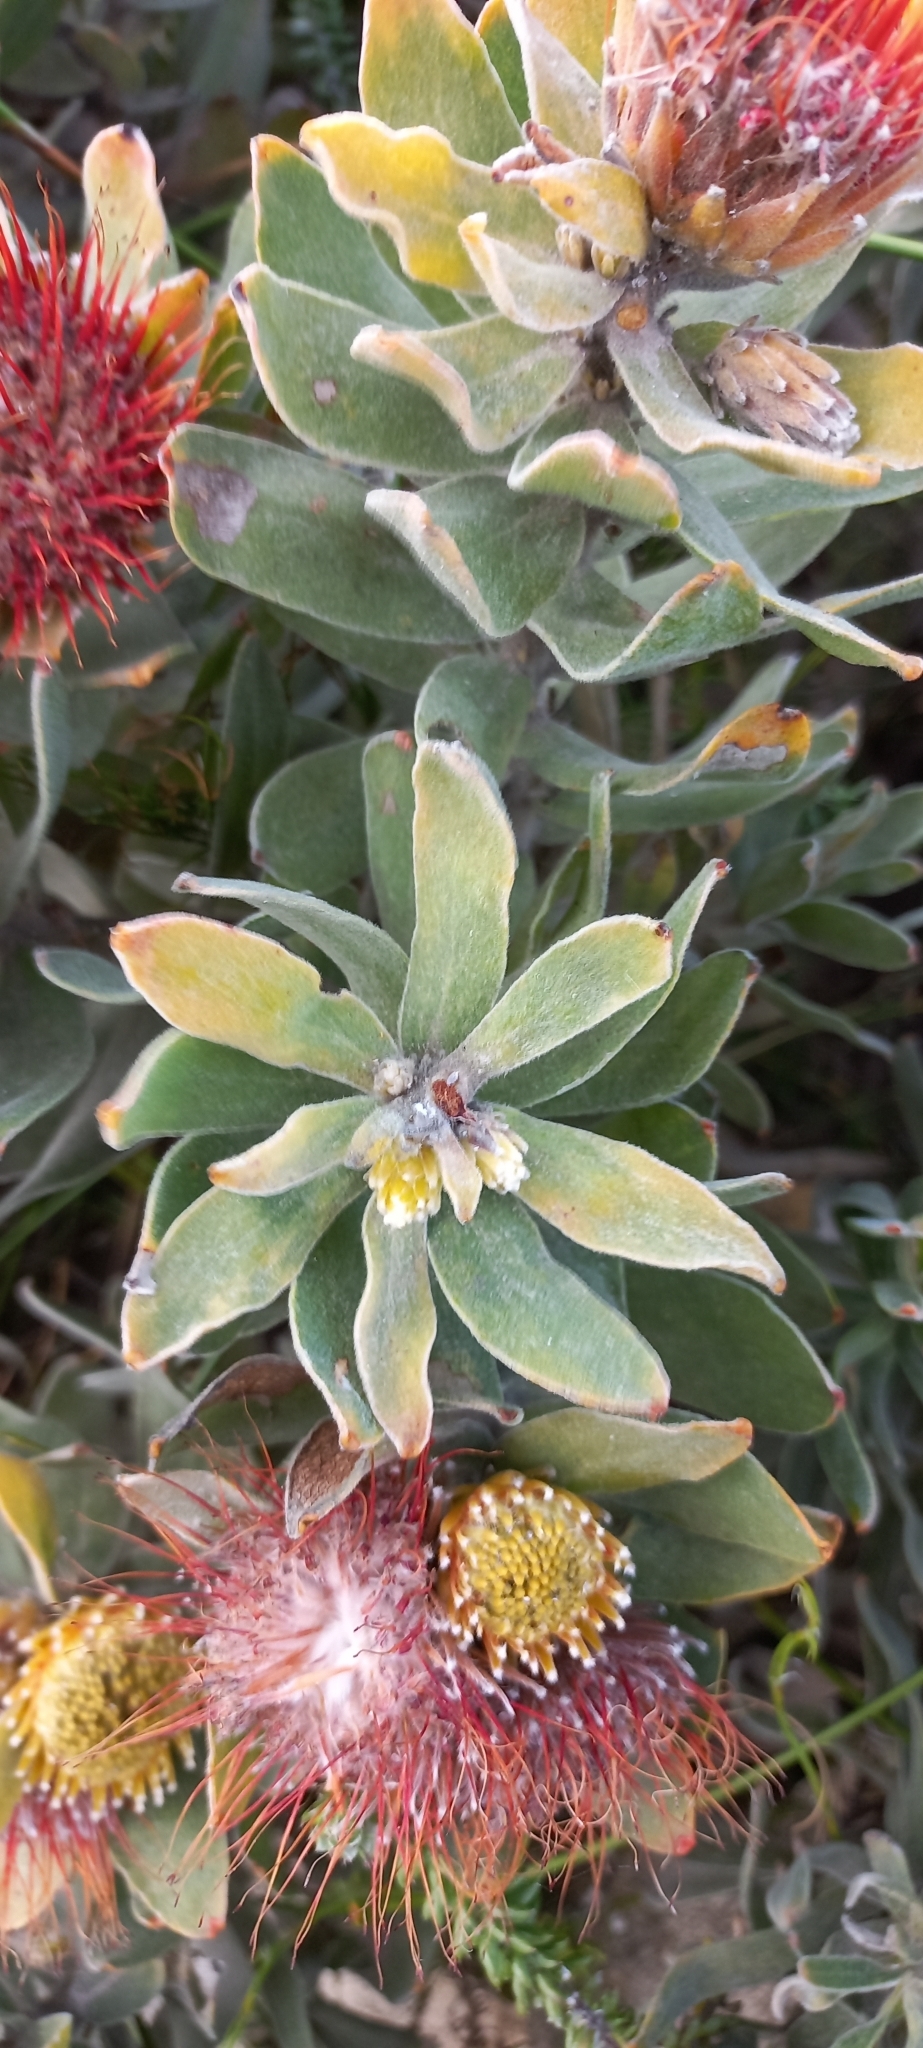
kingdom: Plantae
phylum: Tracheophyta
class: Magnoliopsida
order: Proteales
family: Proteaceae
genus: Leucospermum
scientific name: Leucospermum oleifolium
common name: Matches
